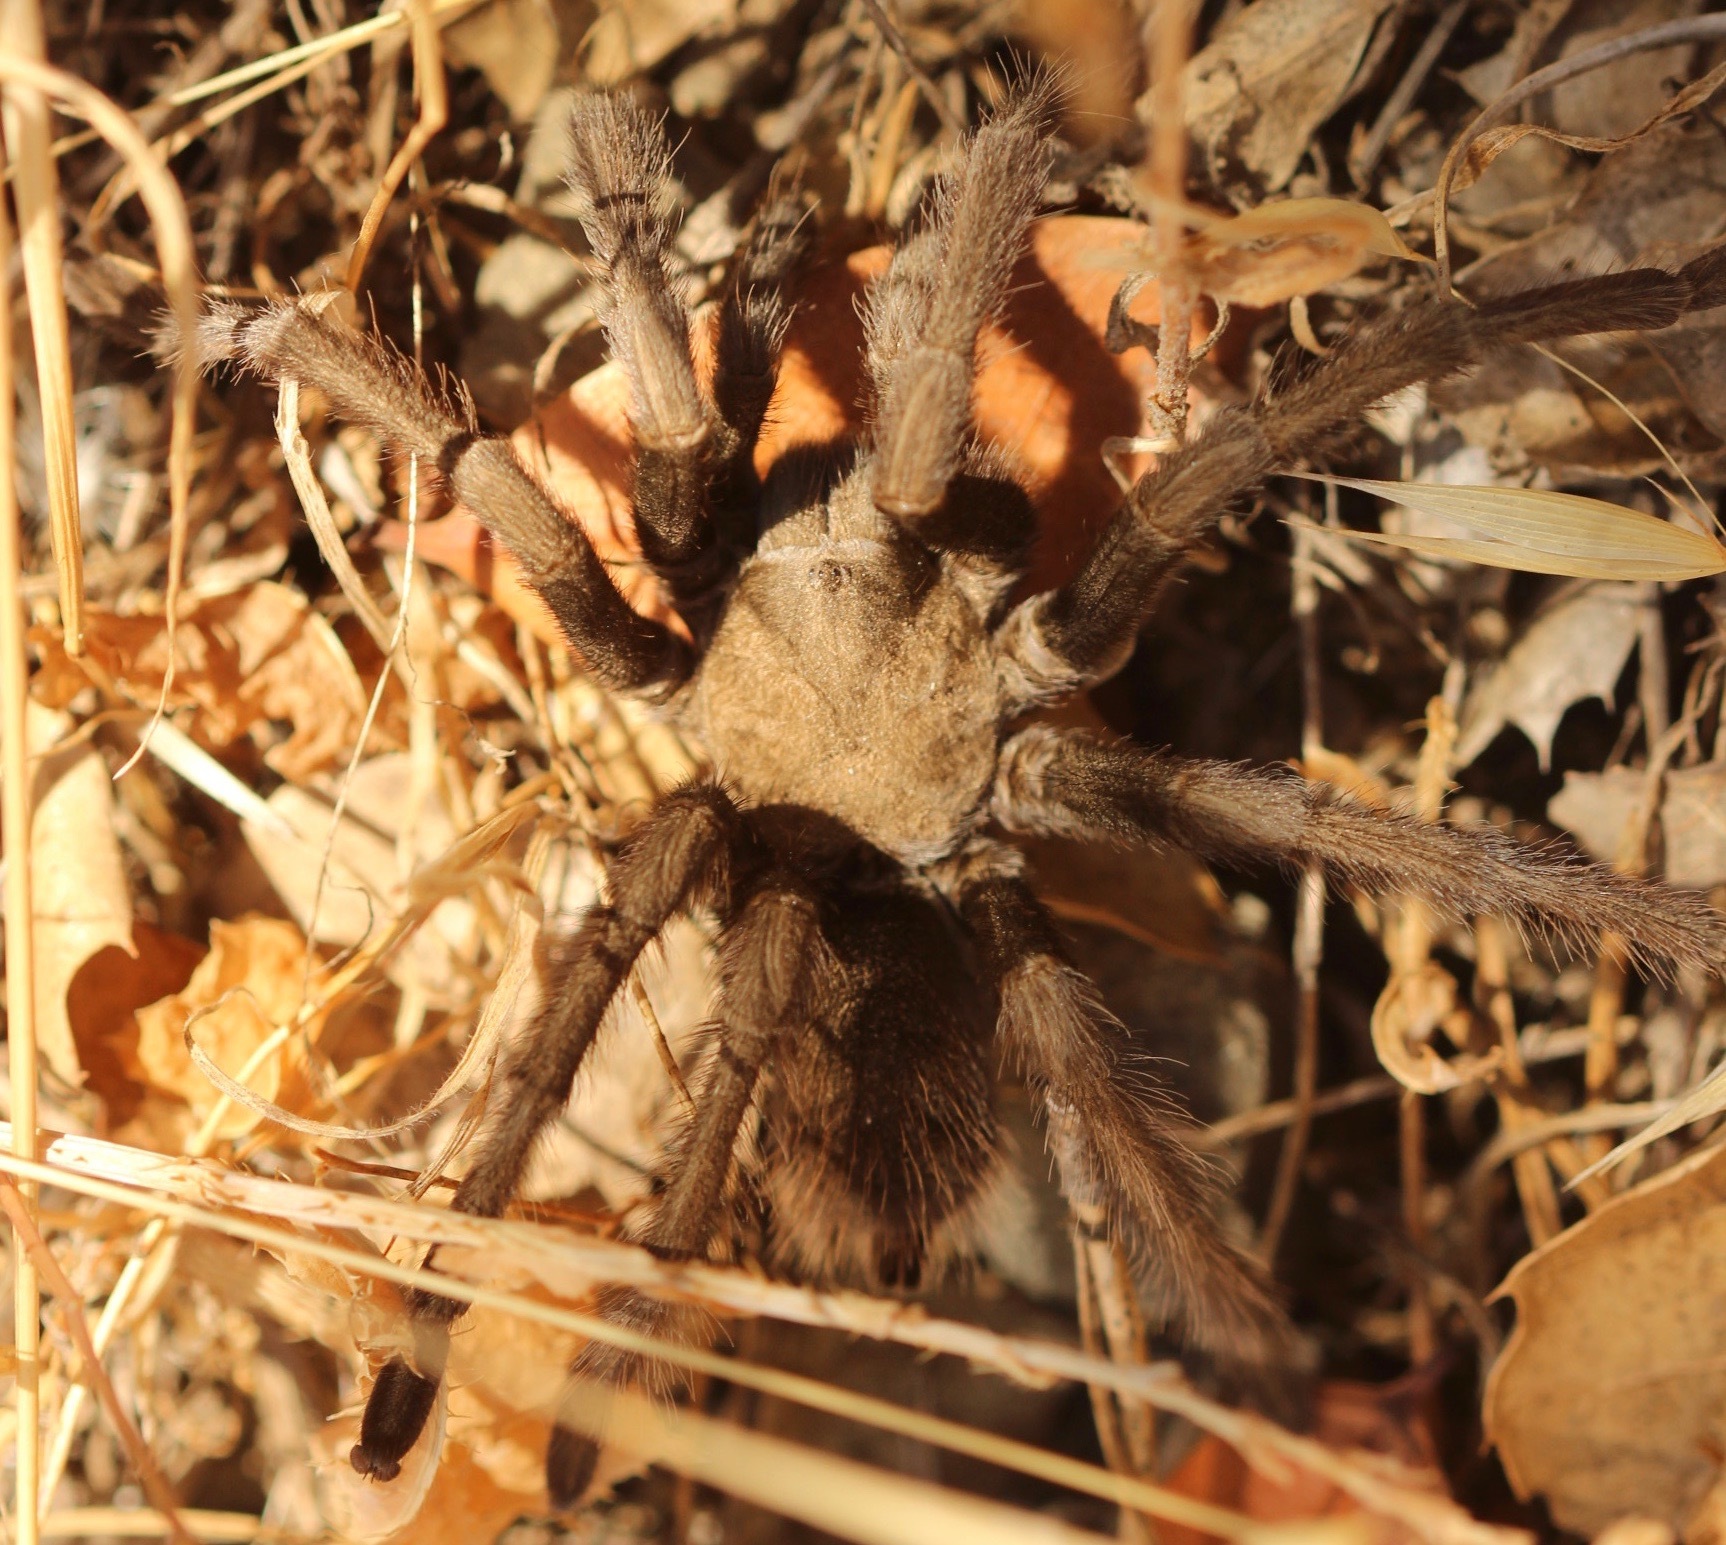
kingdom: Animalia
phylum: Arthropoda
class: Arachnida
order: Araneae
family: Theraphosidae
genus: Aphonopelma
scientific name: Aphonopelma iodius
